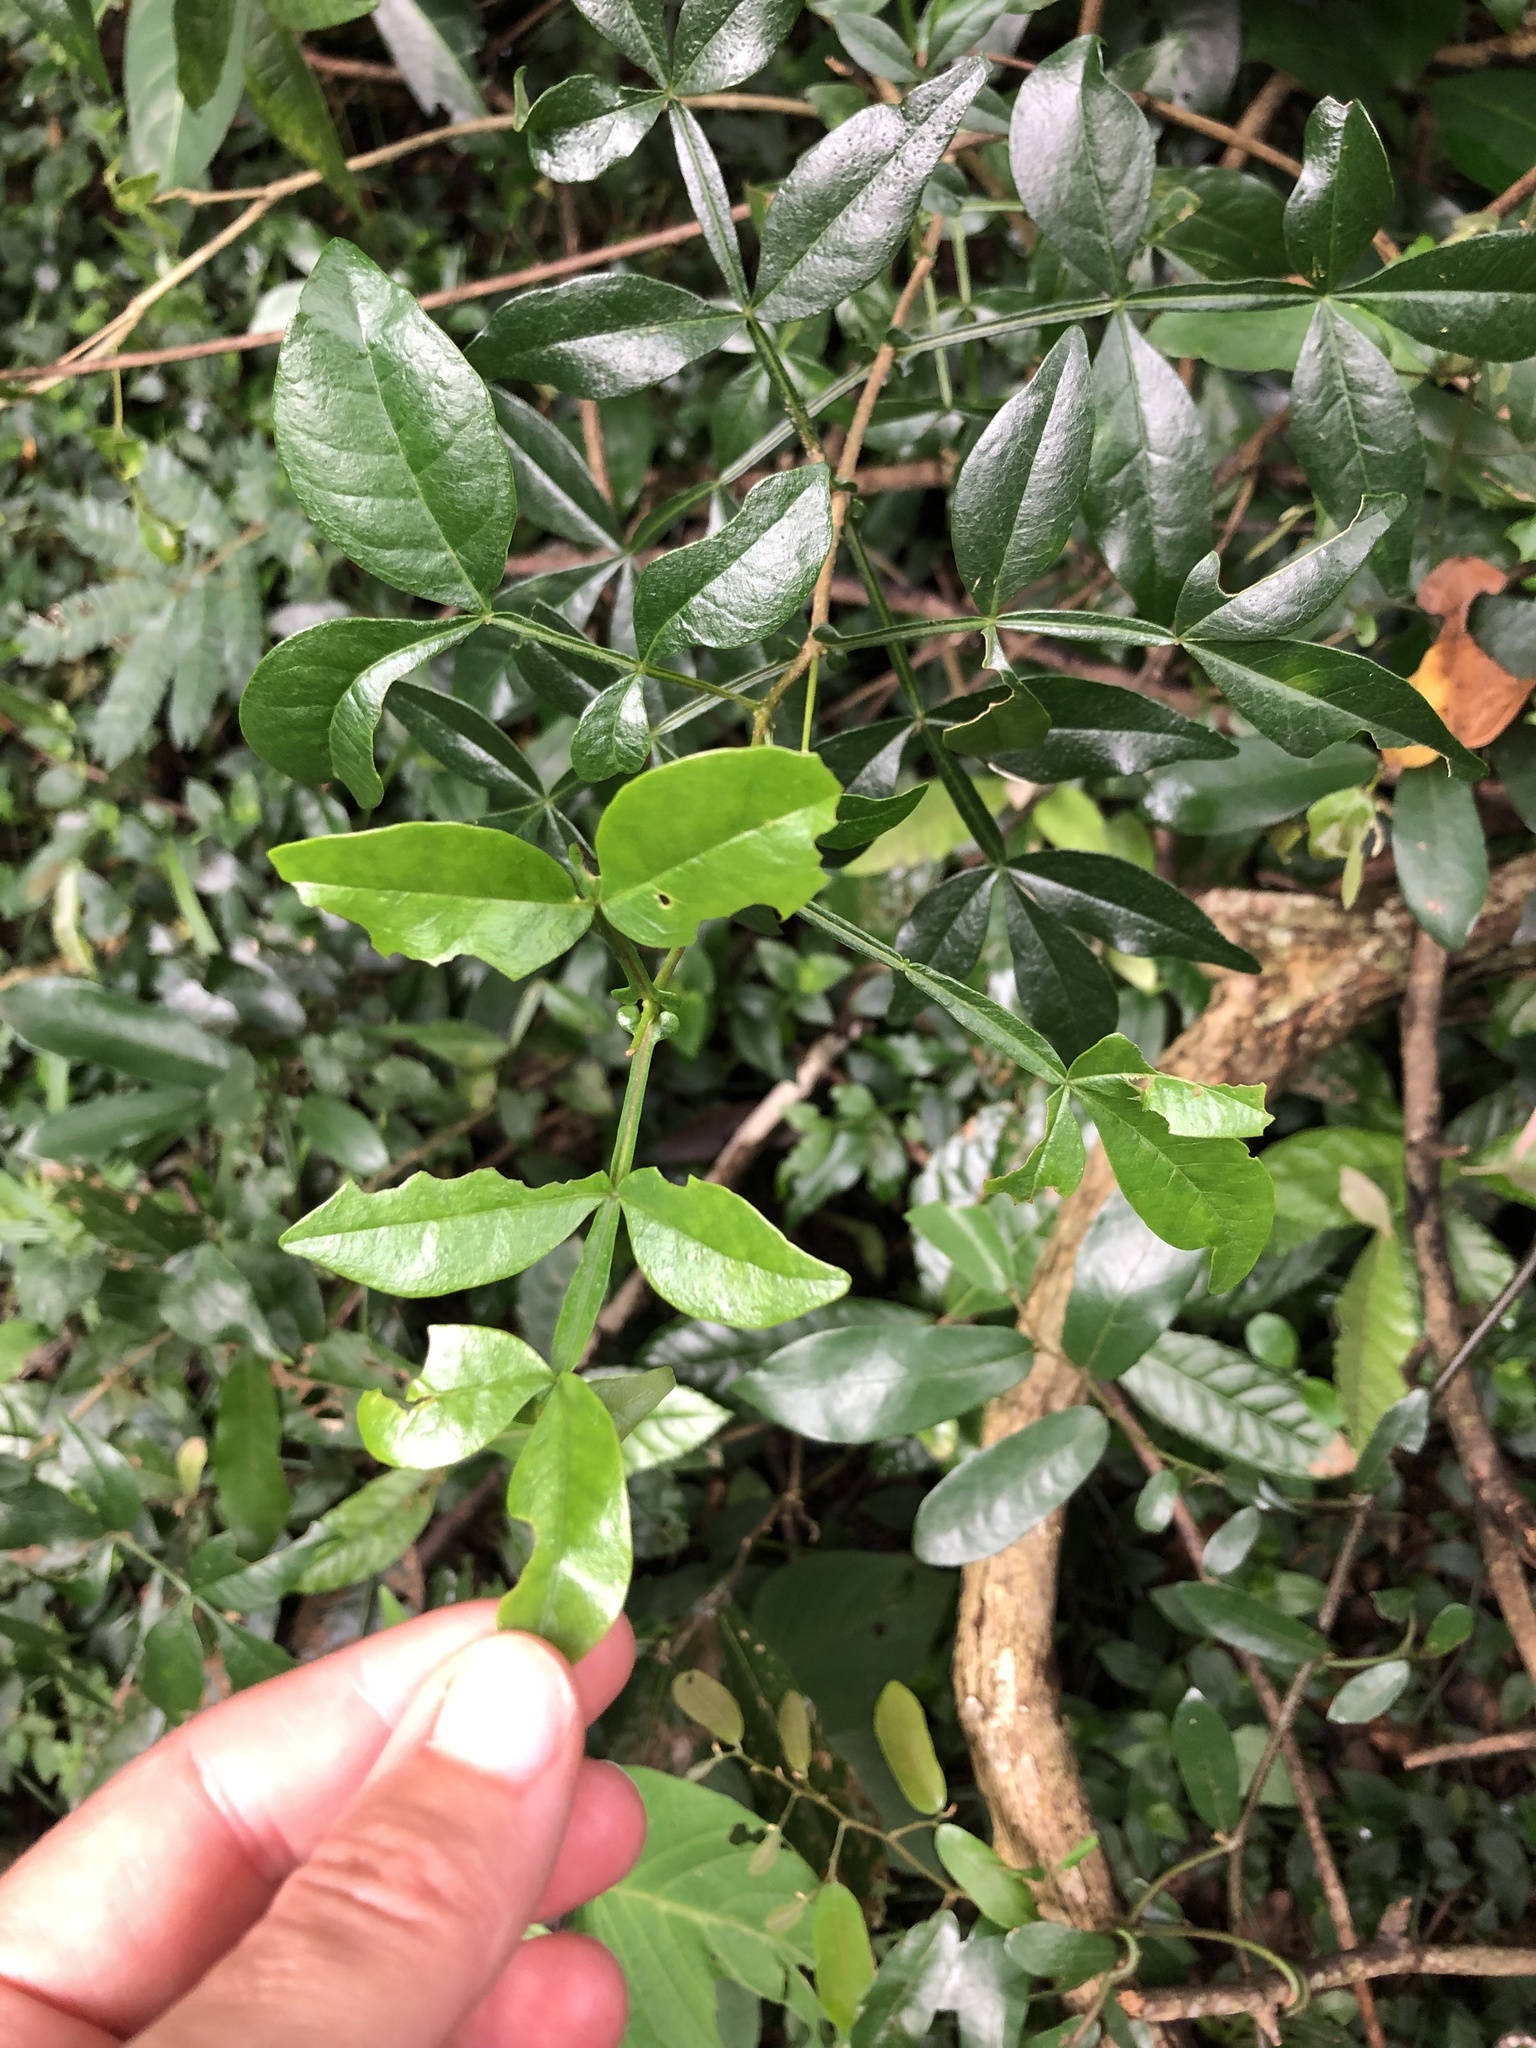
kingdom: Plantae
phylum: Tracheophyta
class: Magnoliopsida
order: Lamiales
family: Oleaceae
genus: Schrebera
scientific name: Schrebera alata
